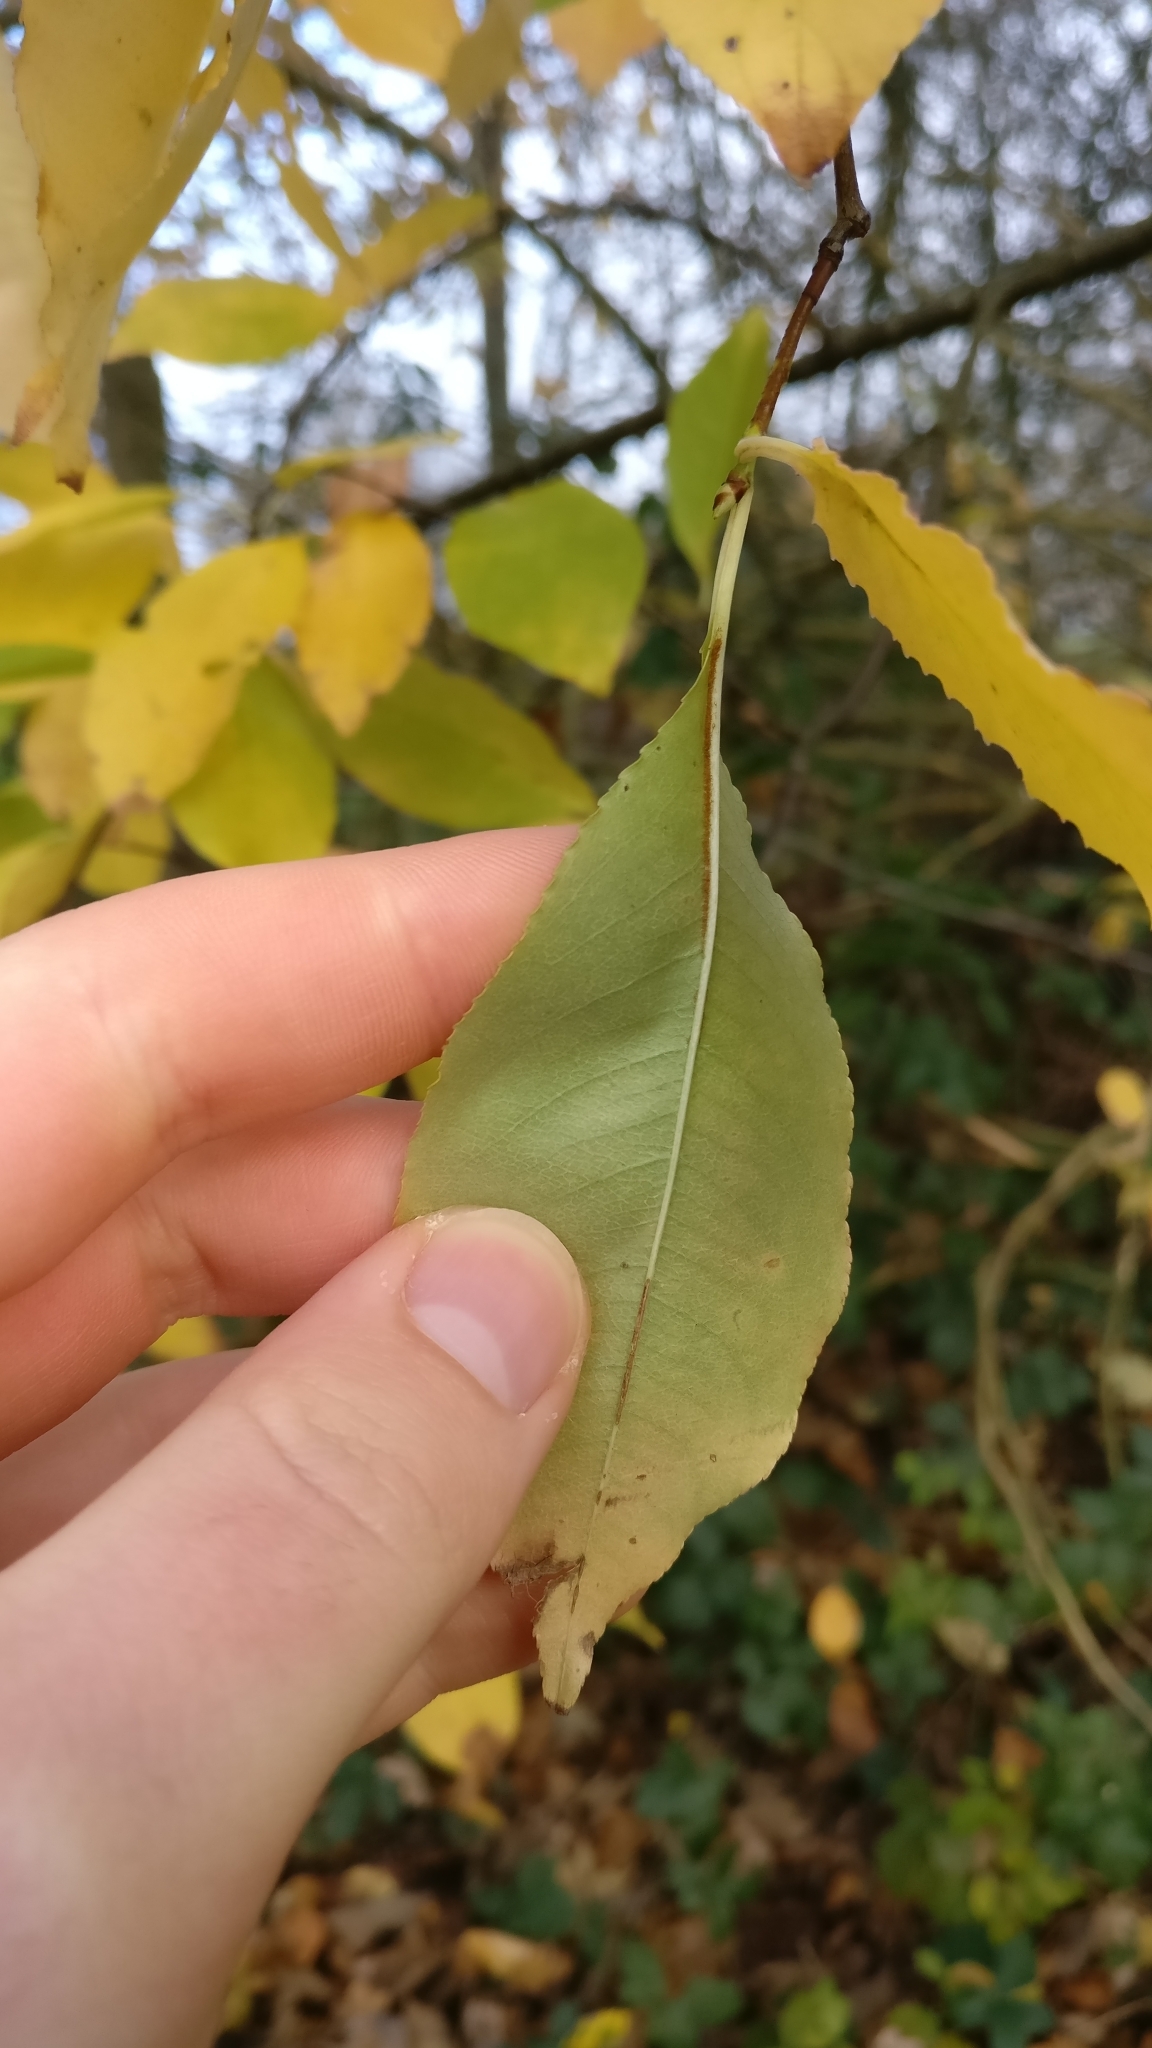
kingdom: Plantae
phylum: Tracheophyta
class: Magnoliopsida
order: Rosales
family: Rosaceae
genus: Prunus
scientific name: Prunus serotina
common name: Black cherry
